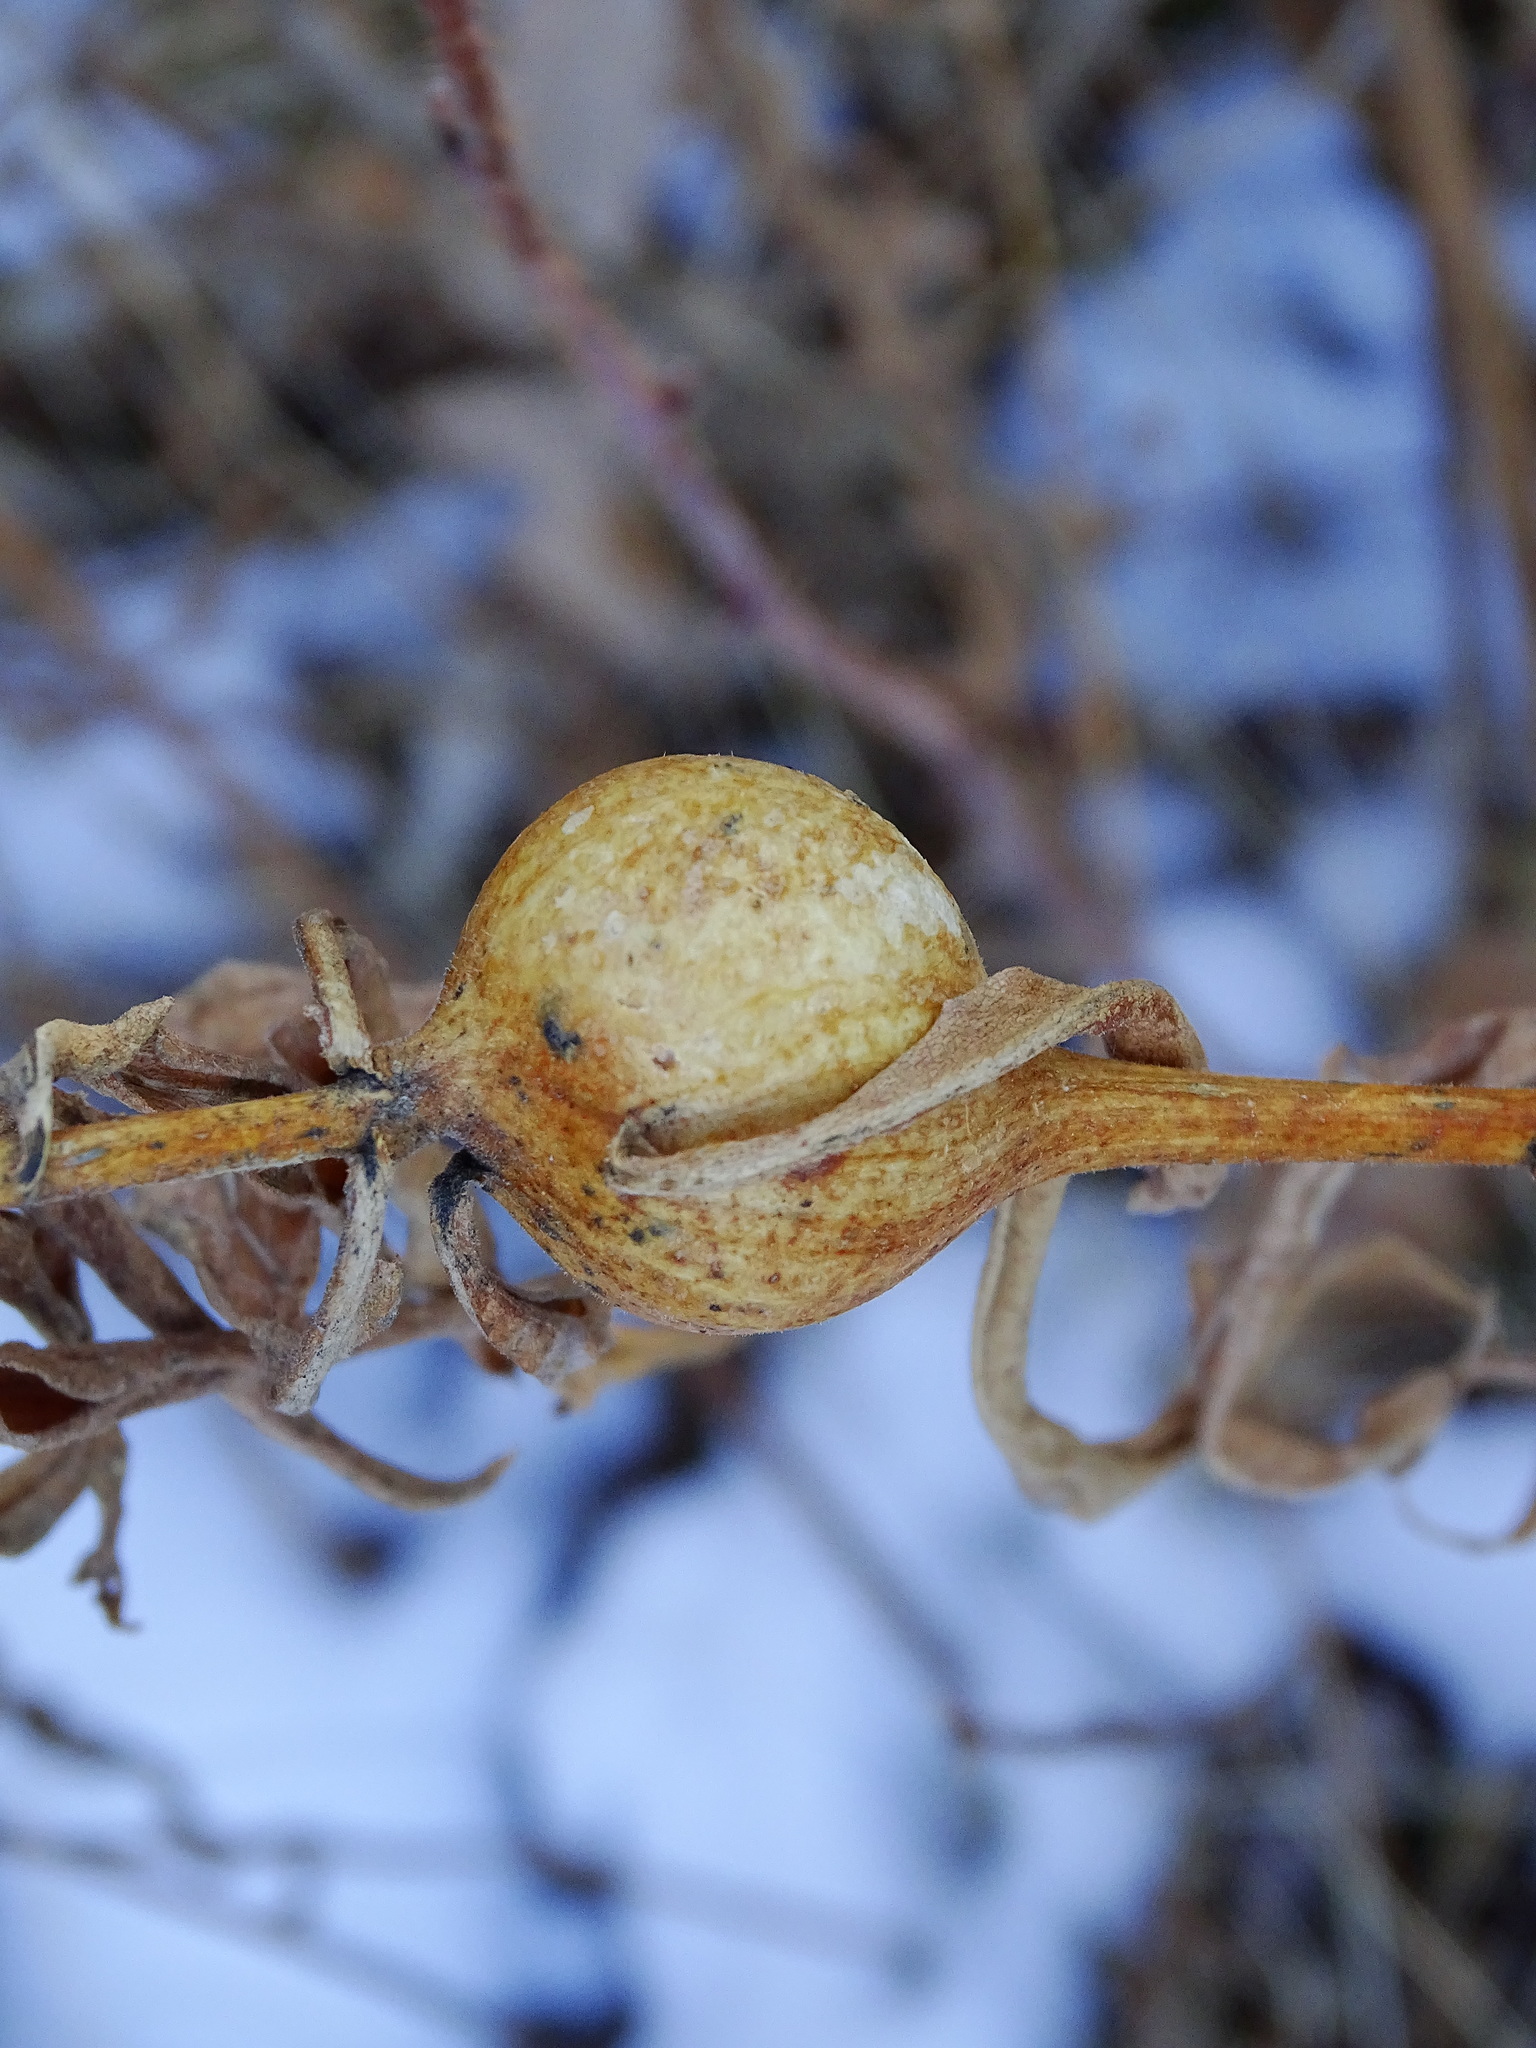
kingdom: Animalia
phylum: Arthropoda
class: Insecta
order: Diptera
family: Tephritidae
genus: Eurosta
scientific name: Eurosta solidaginis
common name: Goldenrod gall fly
